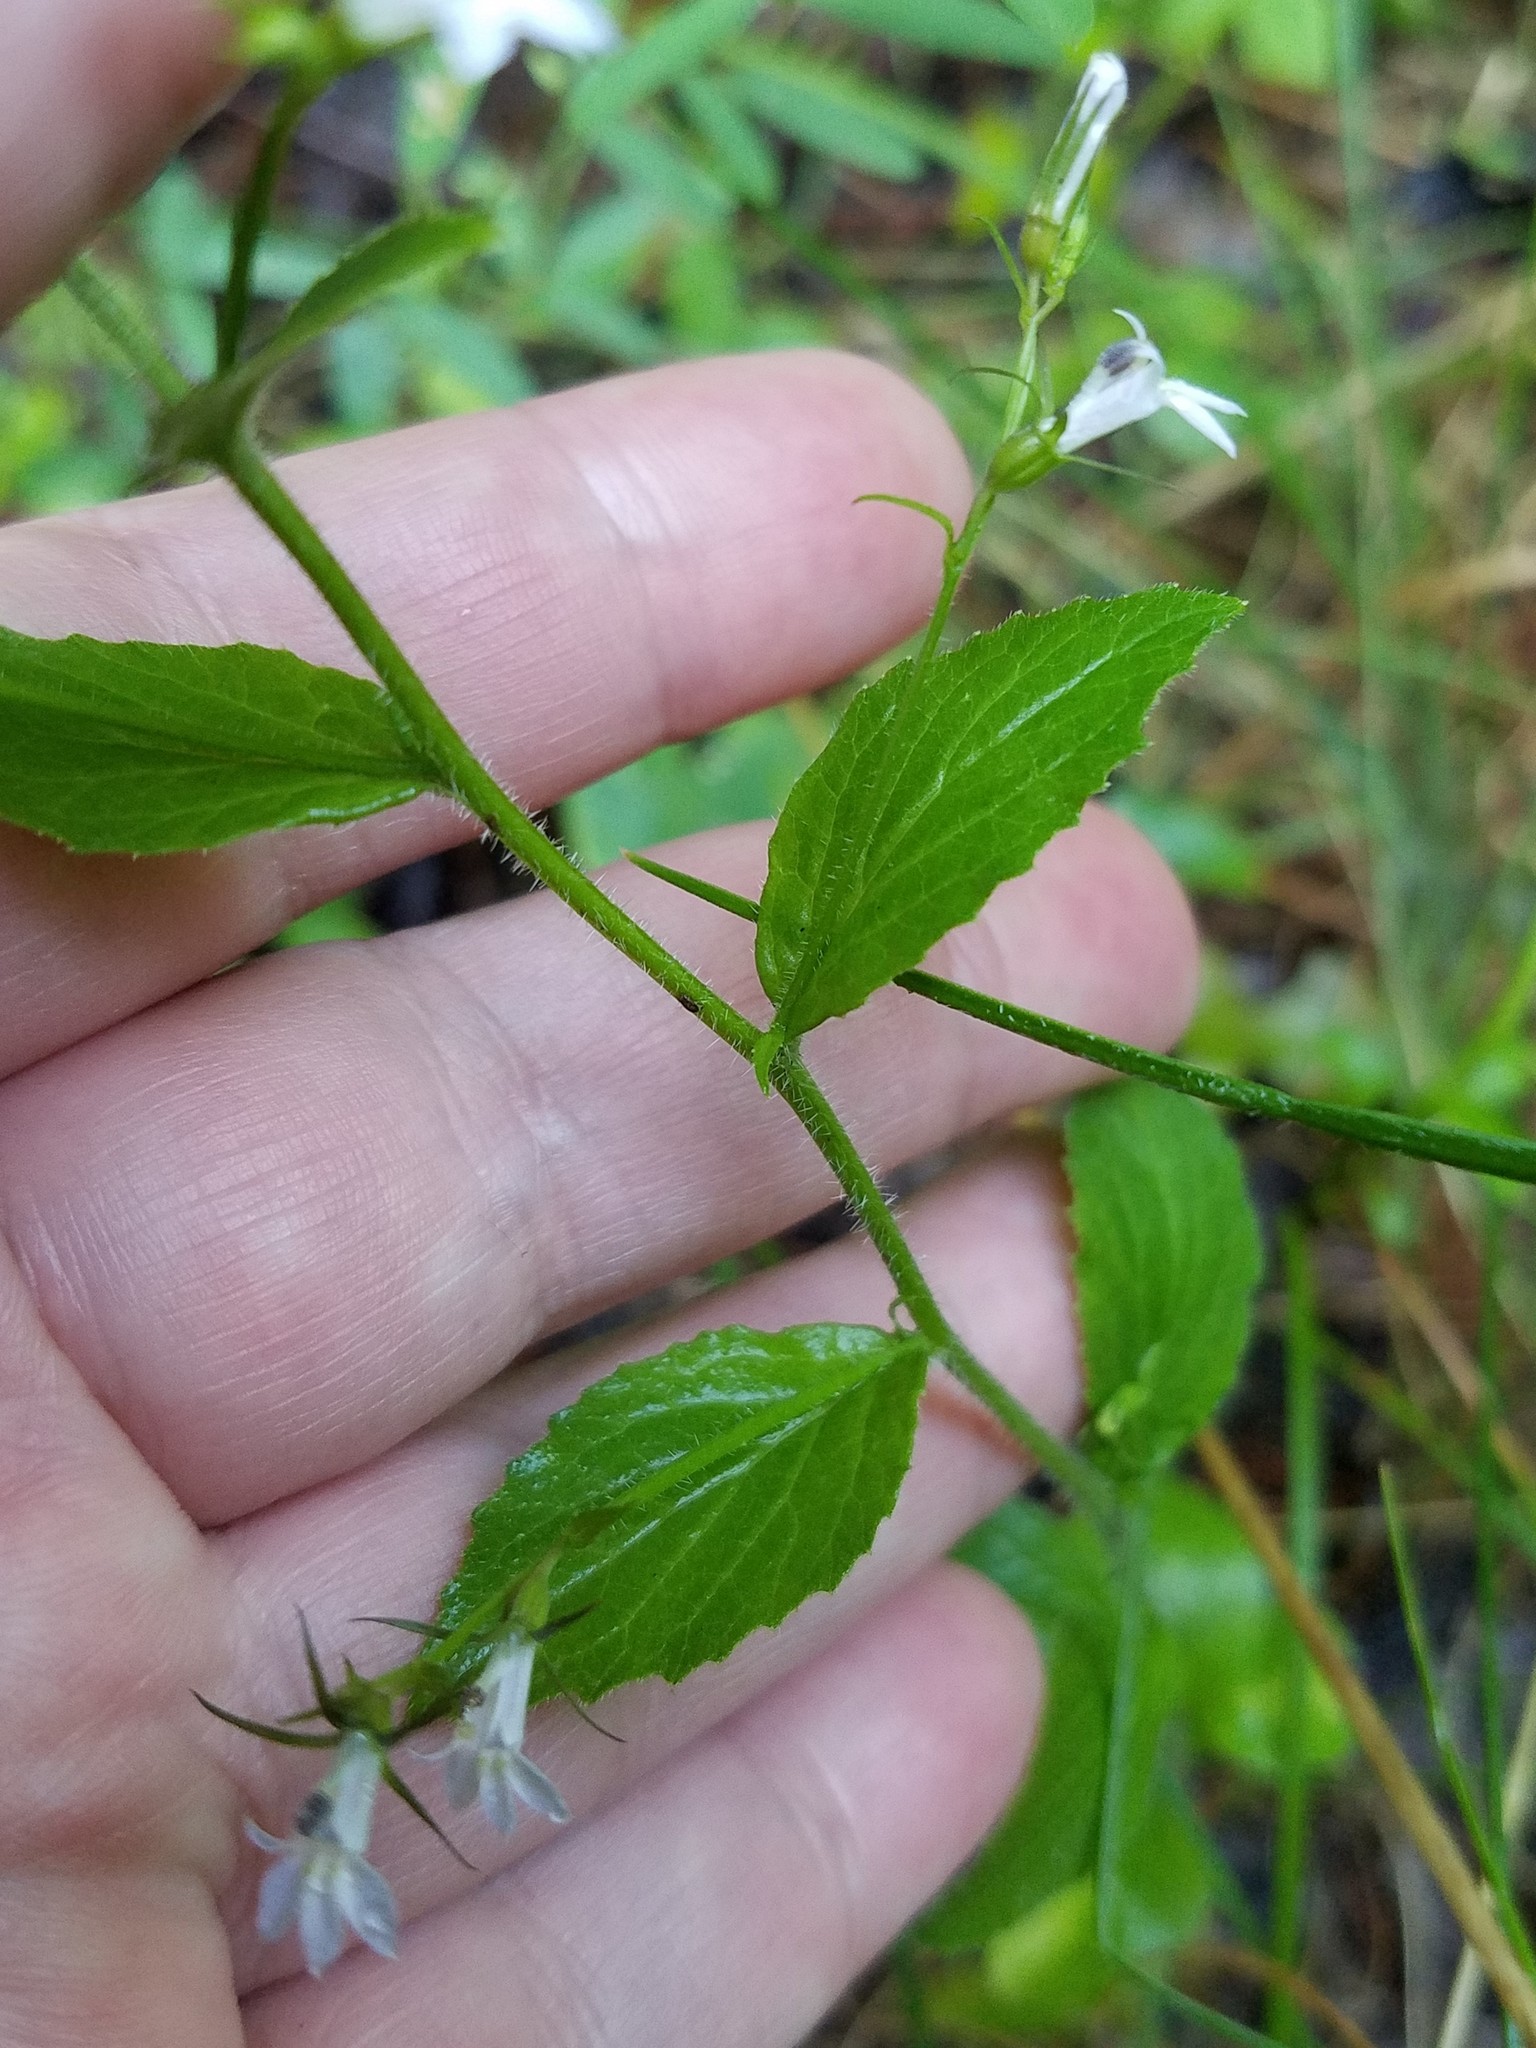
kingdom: Plantae
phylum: Tracheophyta
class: Magnoliopsida
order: Asterales
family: Campanulaceae
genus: Lobelia
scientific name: Lobelia inflata
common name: Indian tobacco
